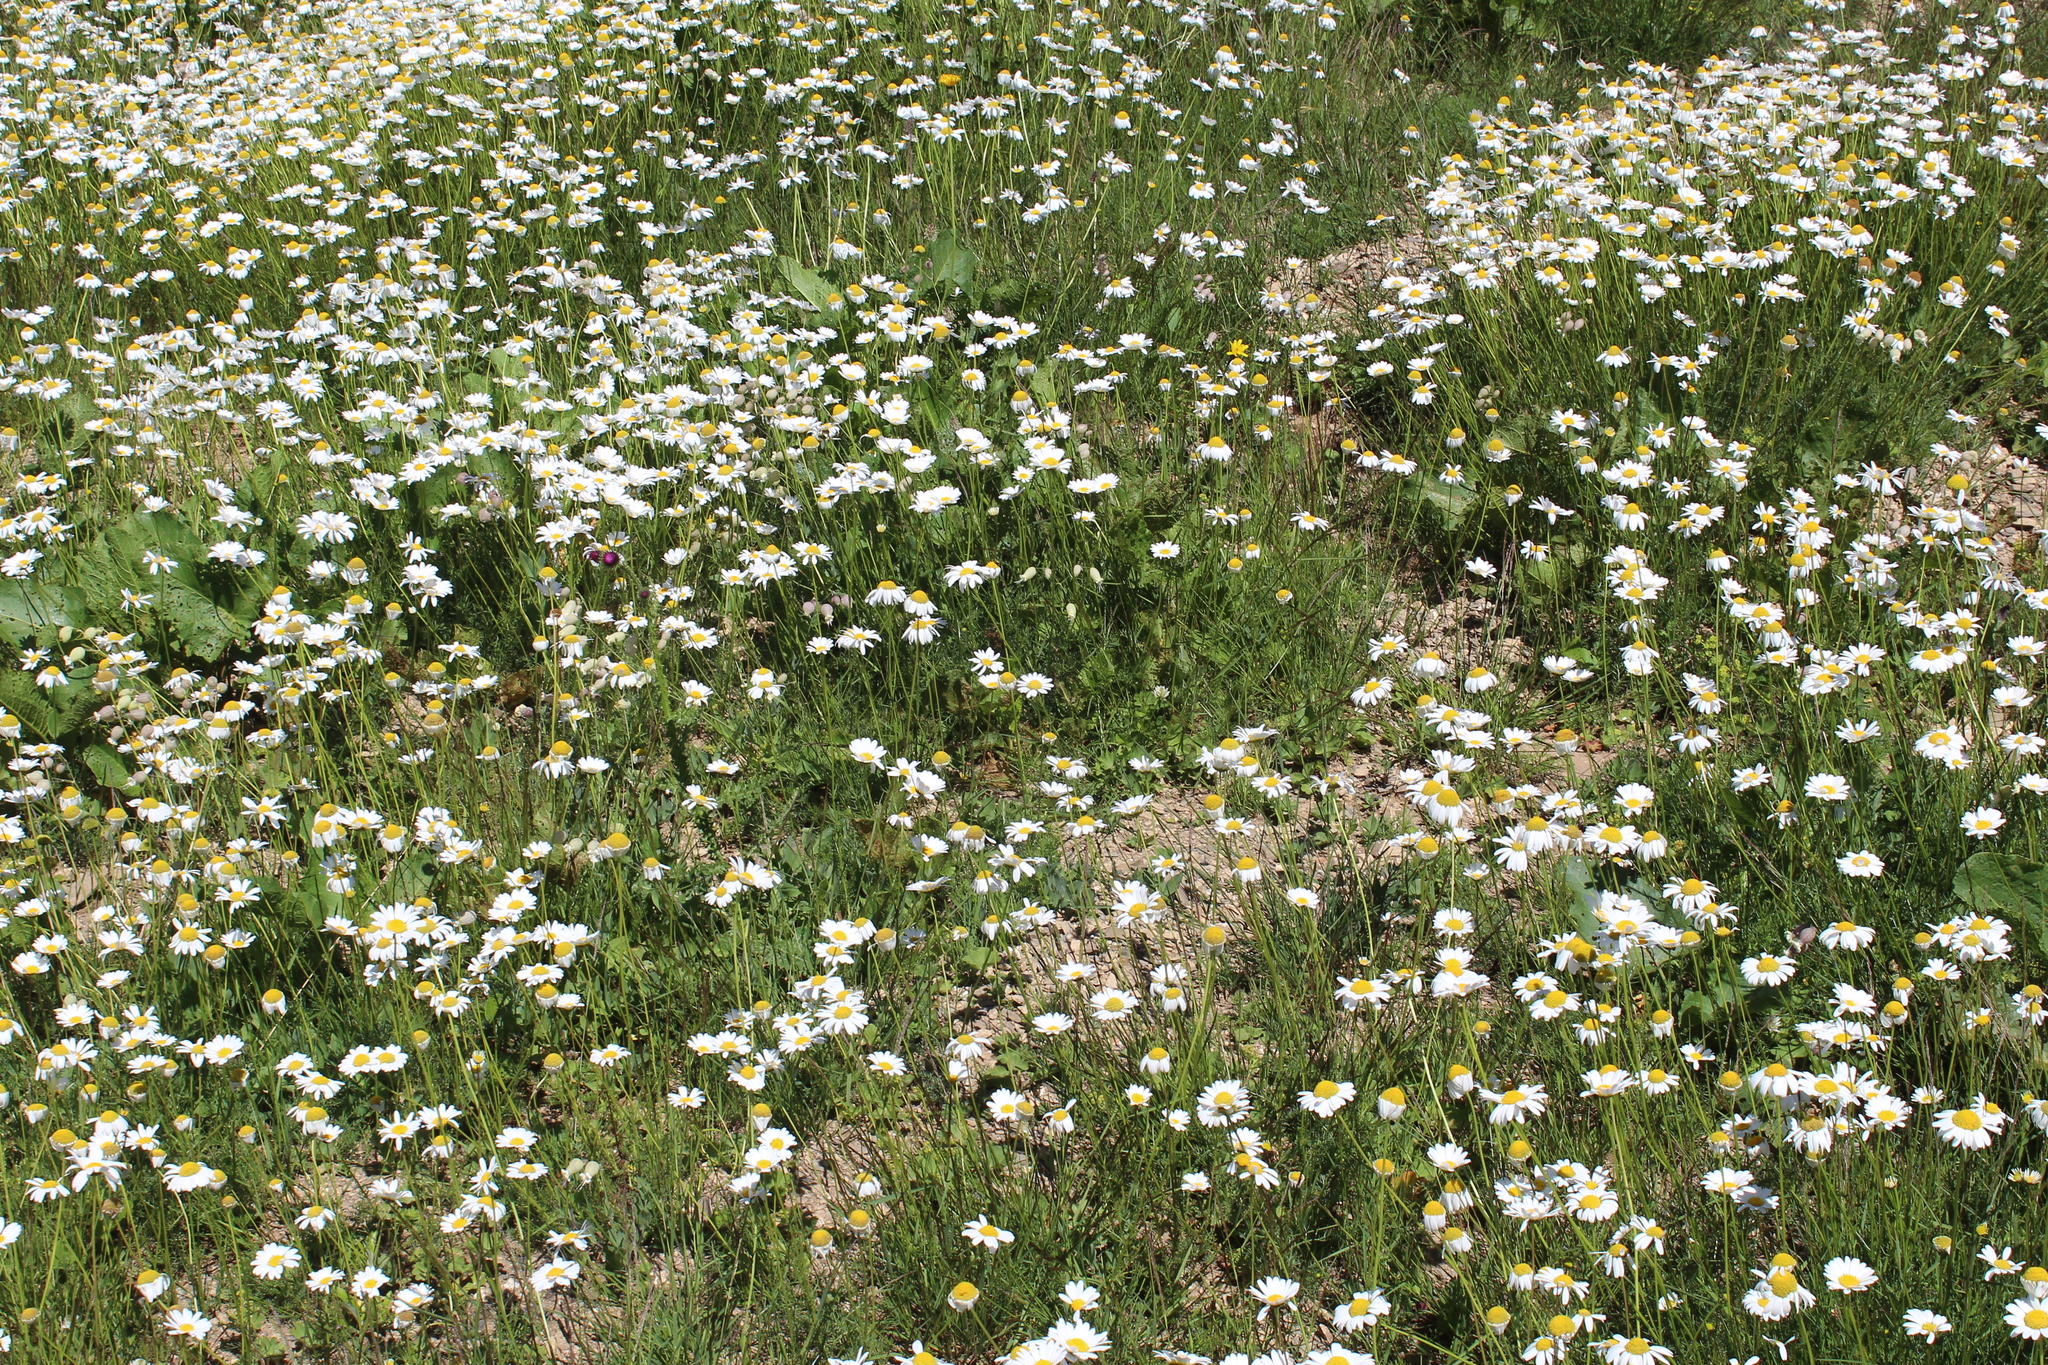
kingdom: Plantae
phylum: Tracheophyta
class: Magnoliopsida
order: Asterales
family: Asteraceae
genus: Tripleurospermum
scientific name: Tripleurospermum caucasicum
